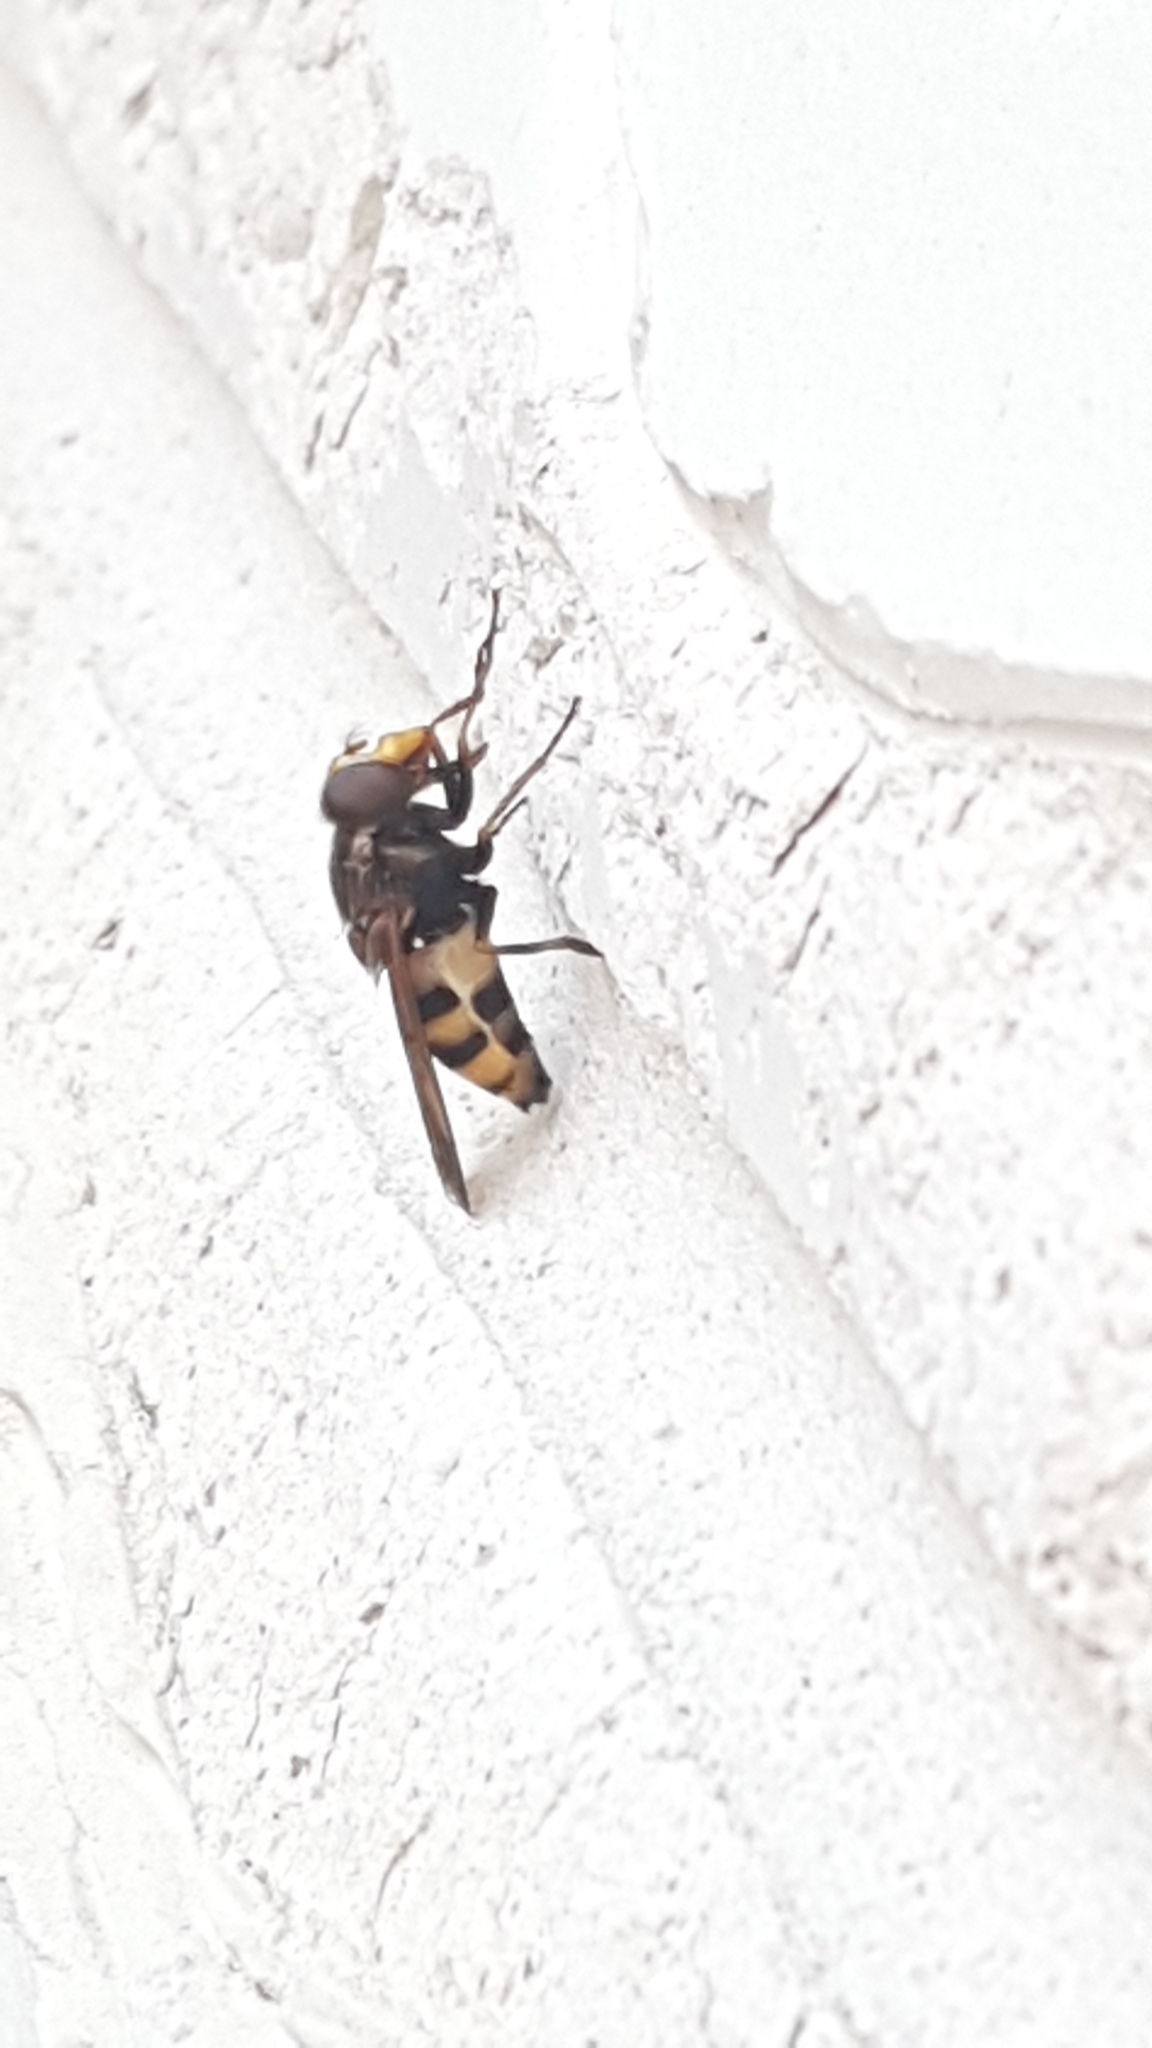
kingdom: Animalia
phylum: Arthropoda
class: Insecta
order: Diptera
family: Syrphidae
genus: Volucella
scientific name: Volucella inanis
